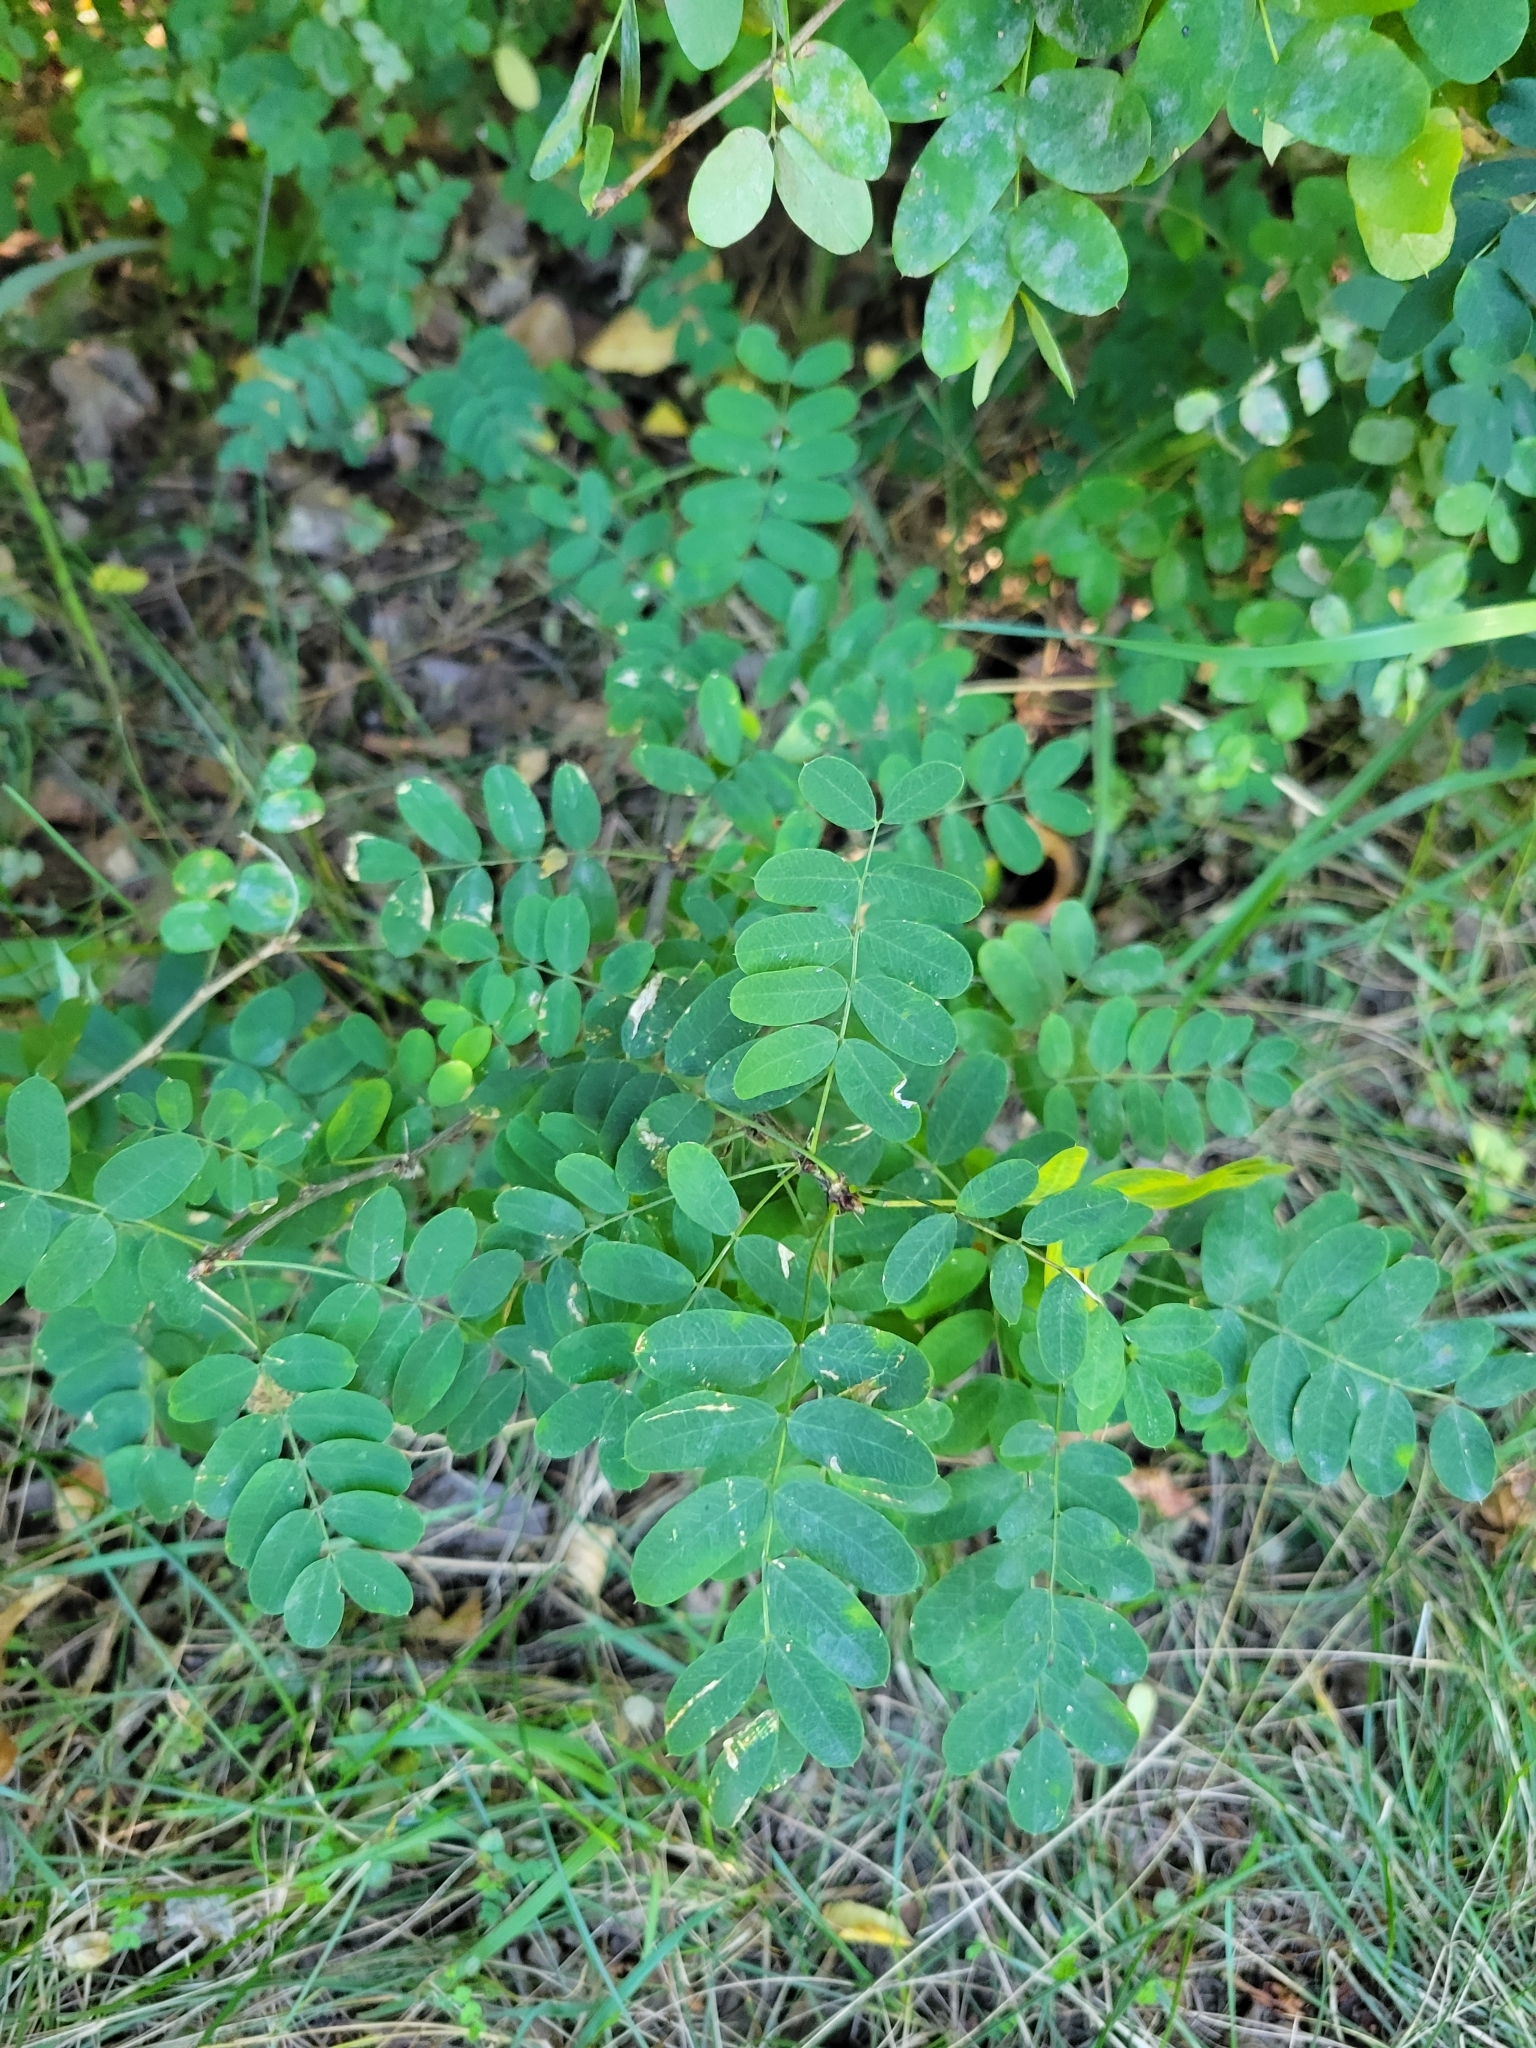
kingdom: Plantae
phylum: Tracheophyta
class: Magnoliopsida
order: Fabales
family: Fabaceae
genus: Caragana
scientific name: Caragana arborescens
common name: Siberian peashrub
